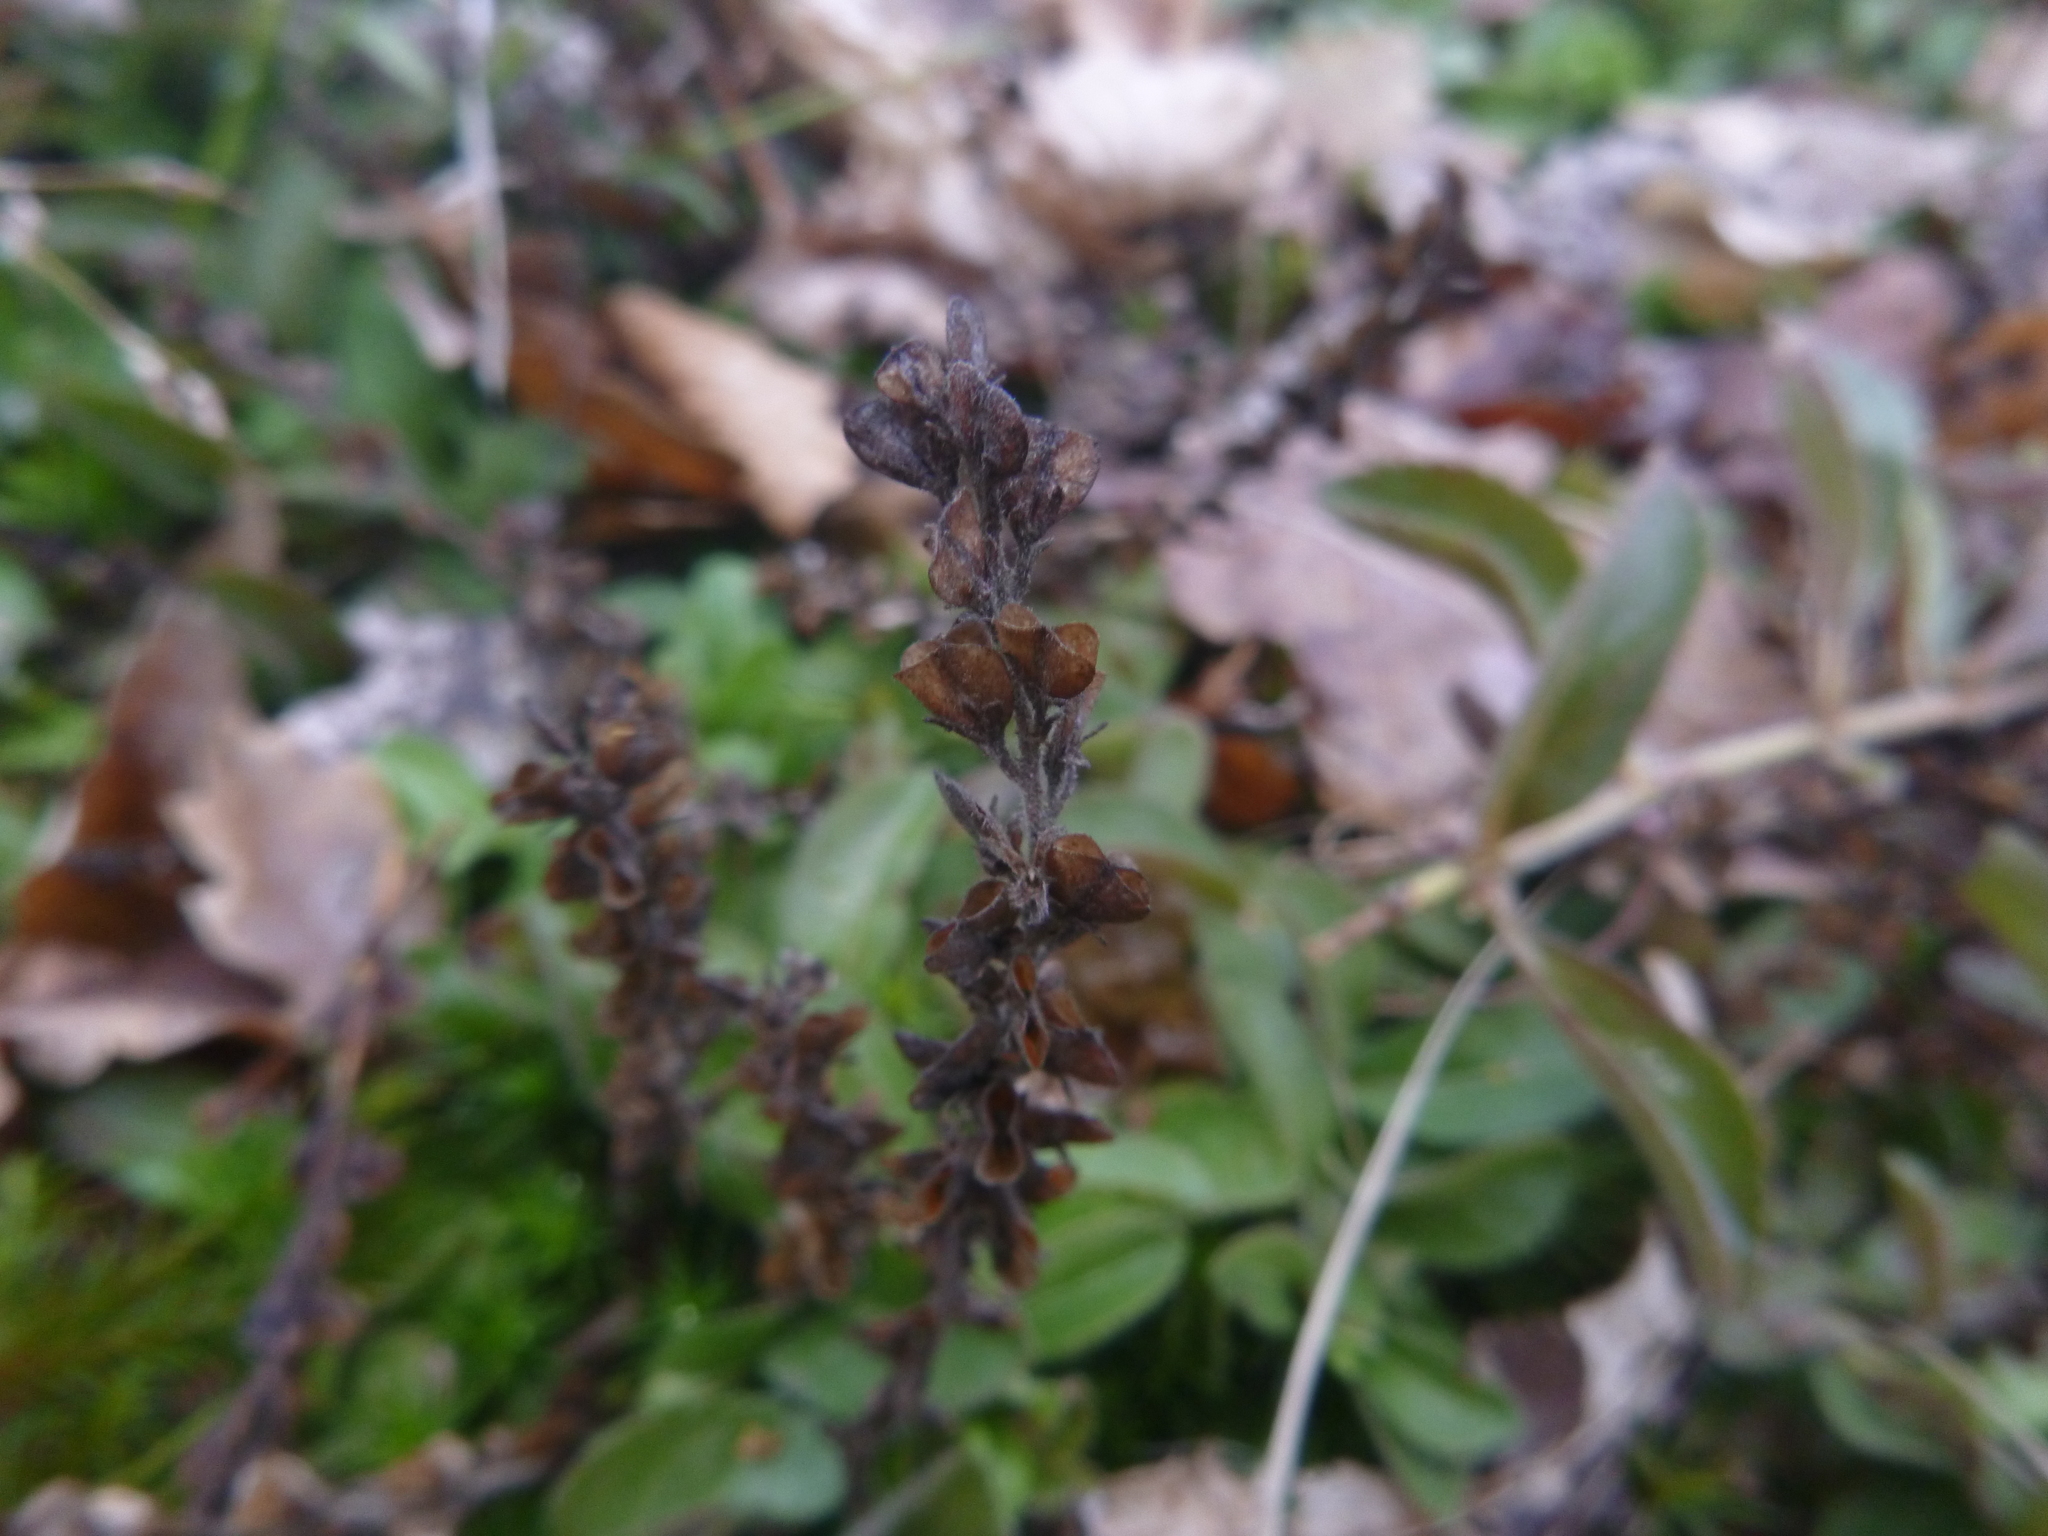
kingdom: Plantae
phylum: Tracheophyta
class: Magnoliopsida
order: Lamiales
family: Plantaginaceae
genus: Veronica
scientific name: Veronica officinalis
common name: Common speedwell
